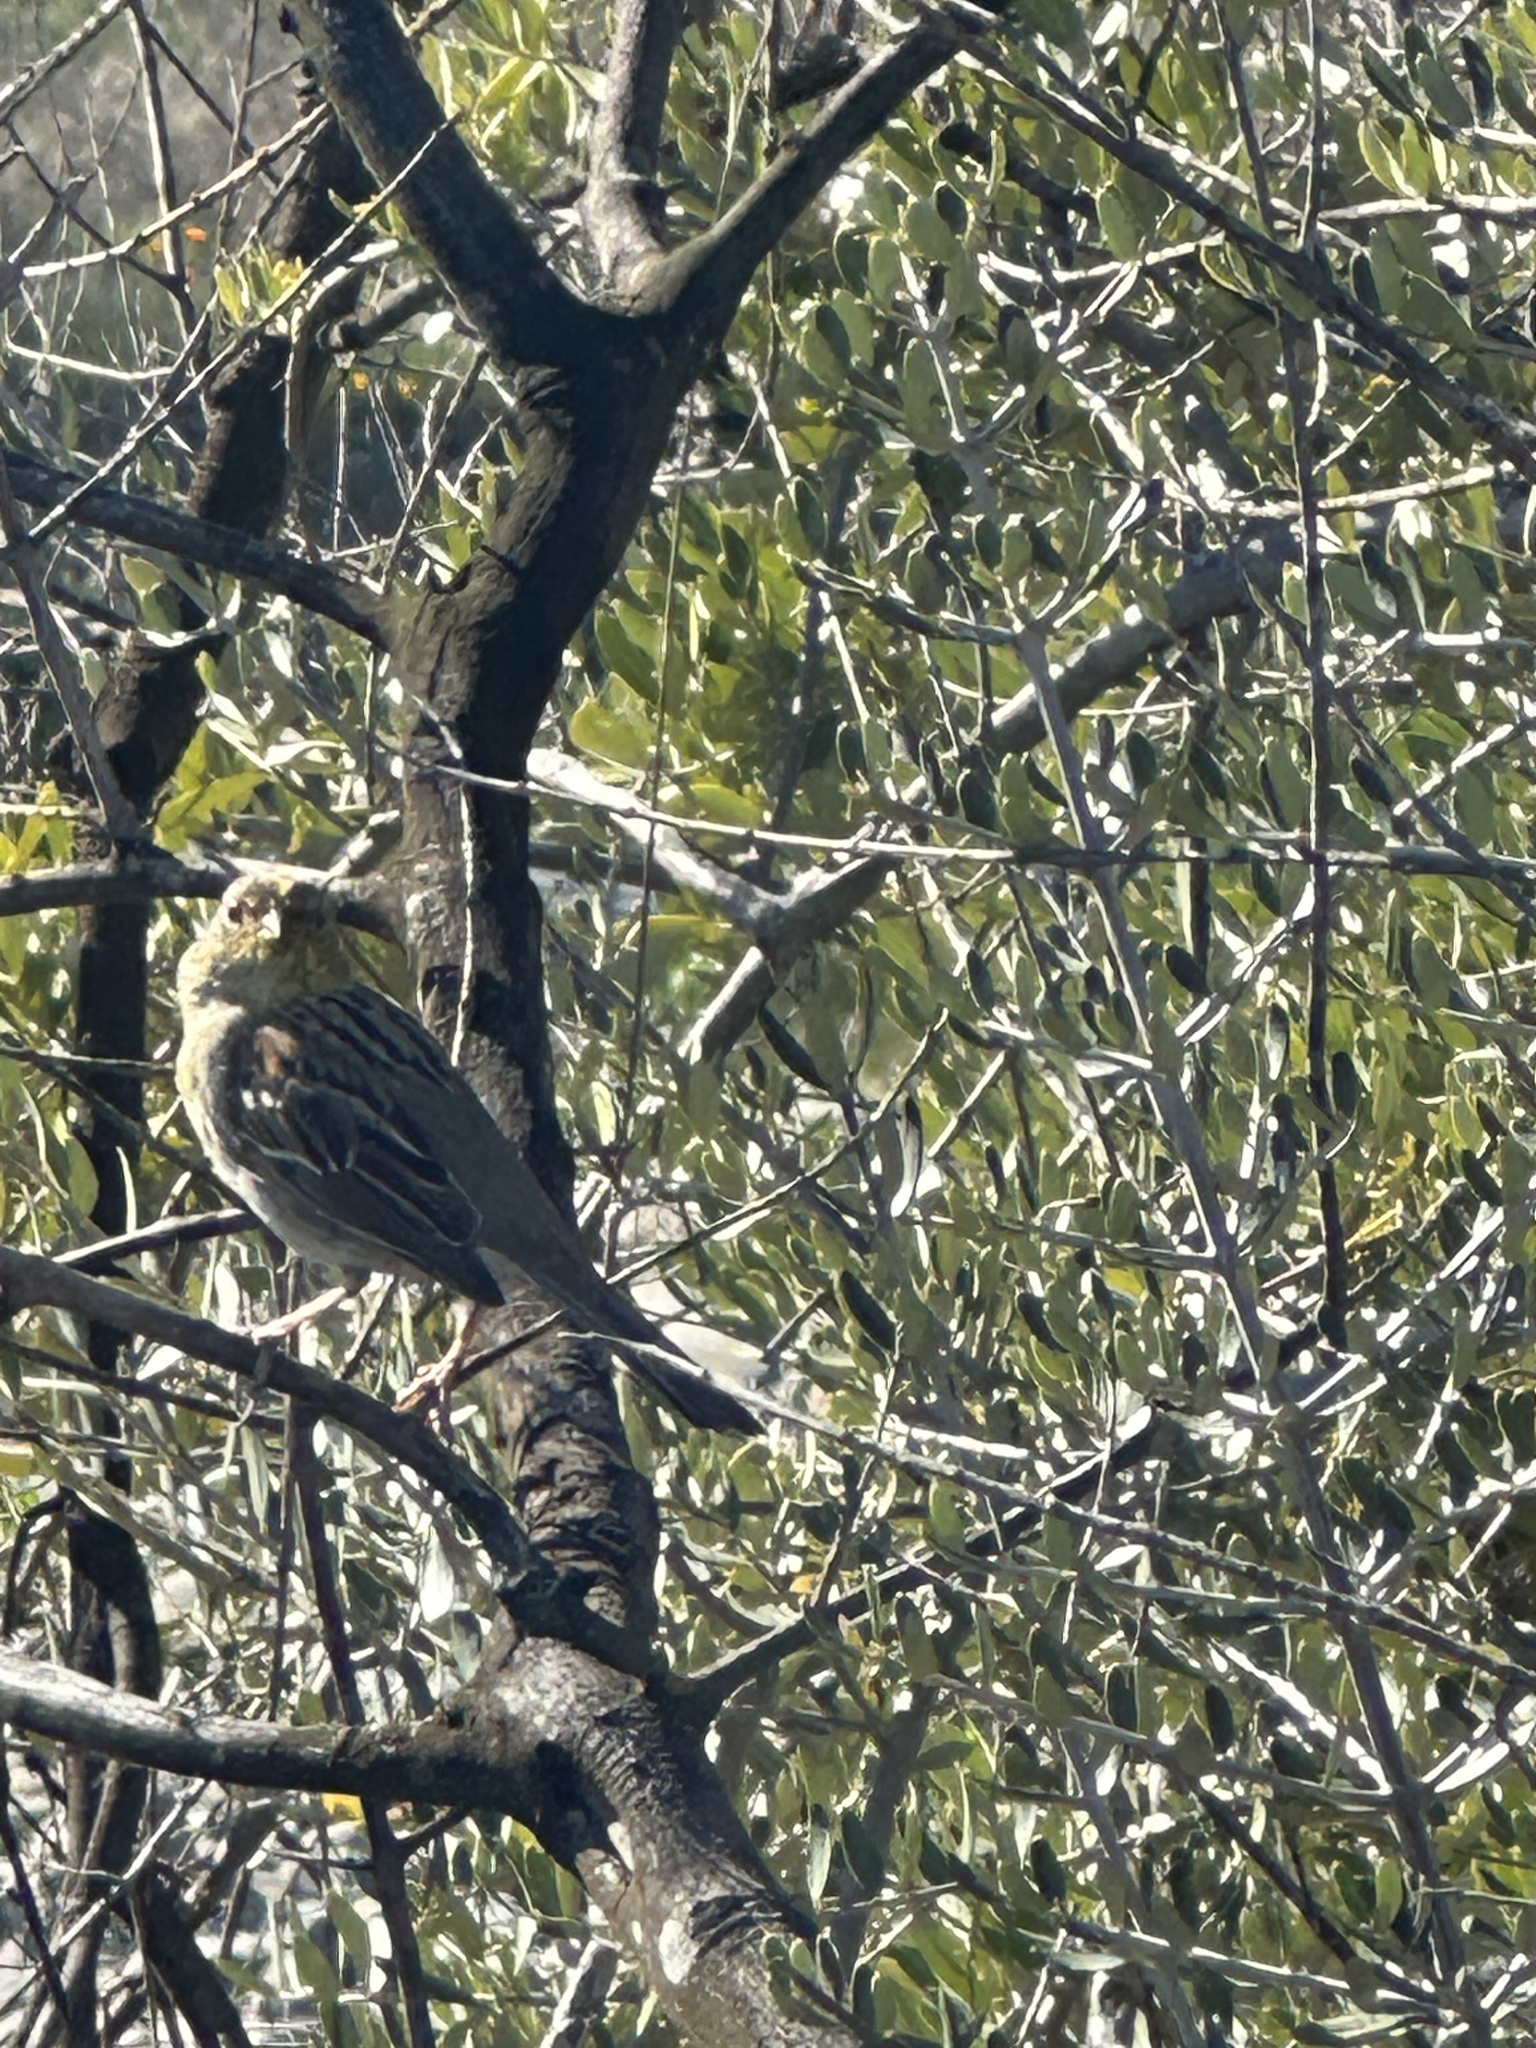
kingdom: Animalia
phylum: Chordata
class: Aves
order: Passeriformes
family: Passerellidae
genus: Zonotrichia
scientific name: Zonotrichia atricapilla
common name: Golden-crowned sparrow
